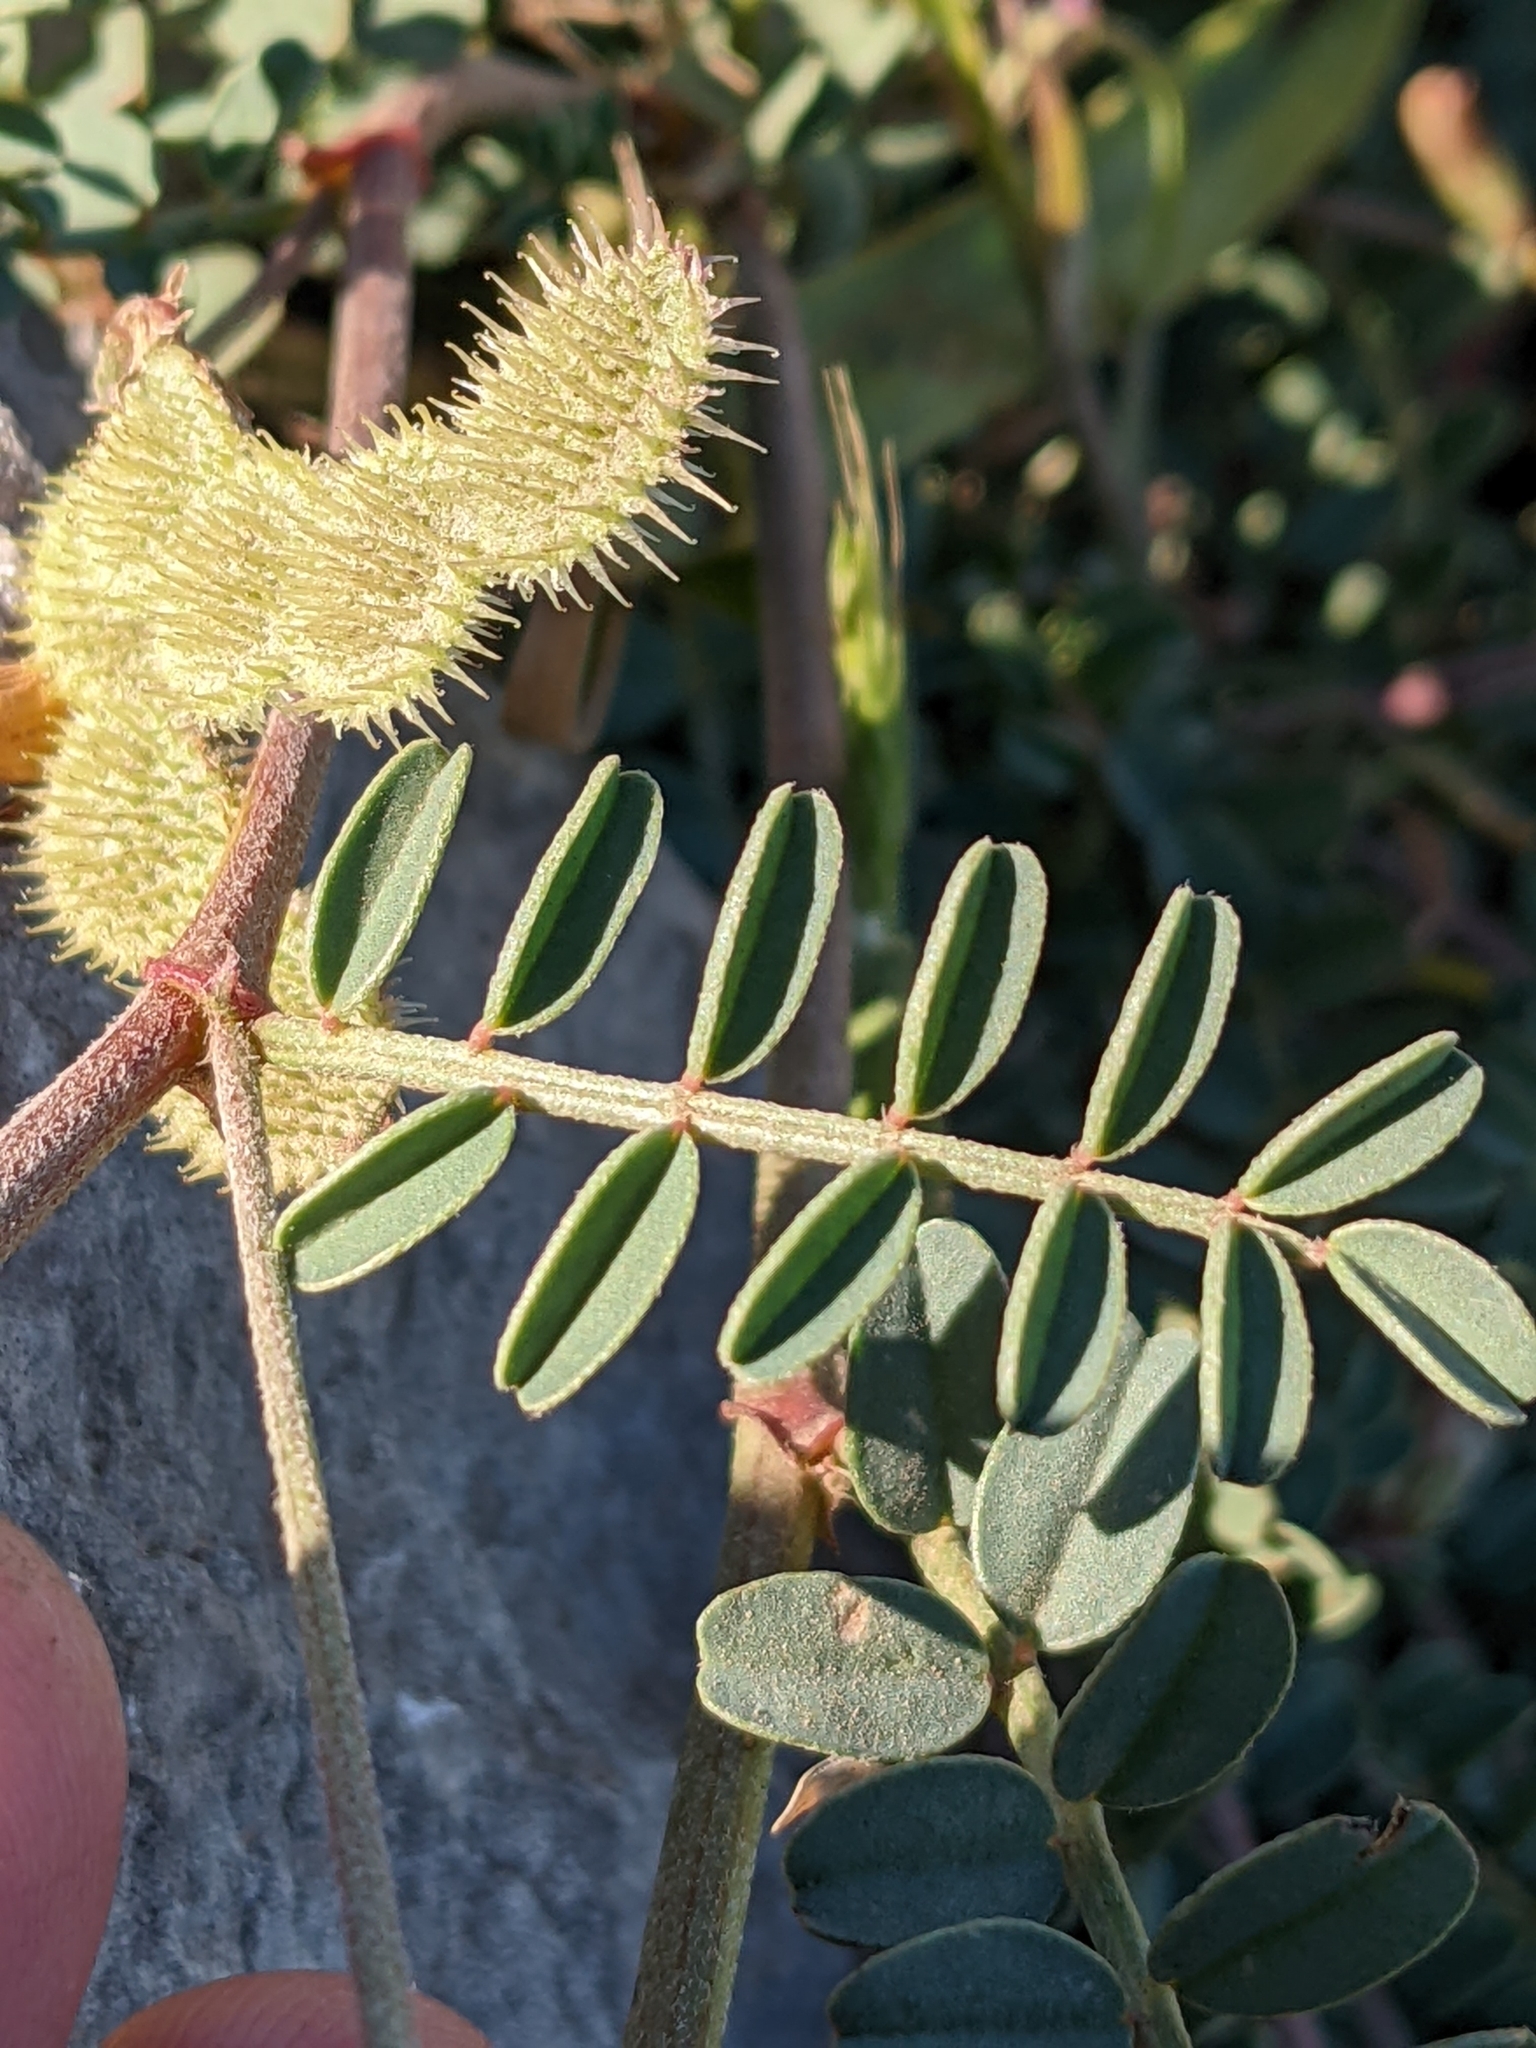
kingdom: Plantae
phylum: Tracheophyta
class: Magnoliopsida
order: Fabales
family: Fabaceae
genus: Sulla
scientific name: Sulla spinosissima
